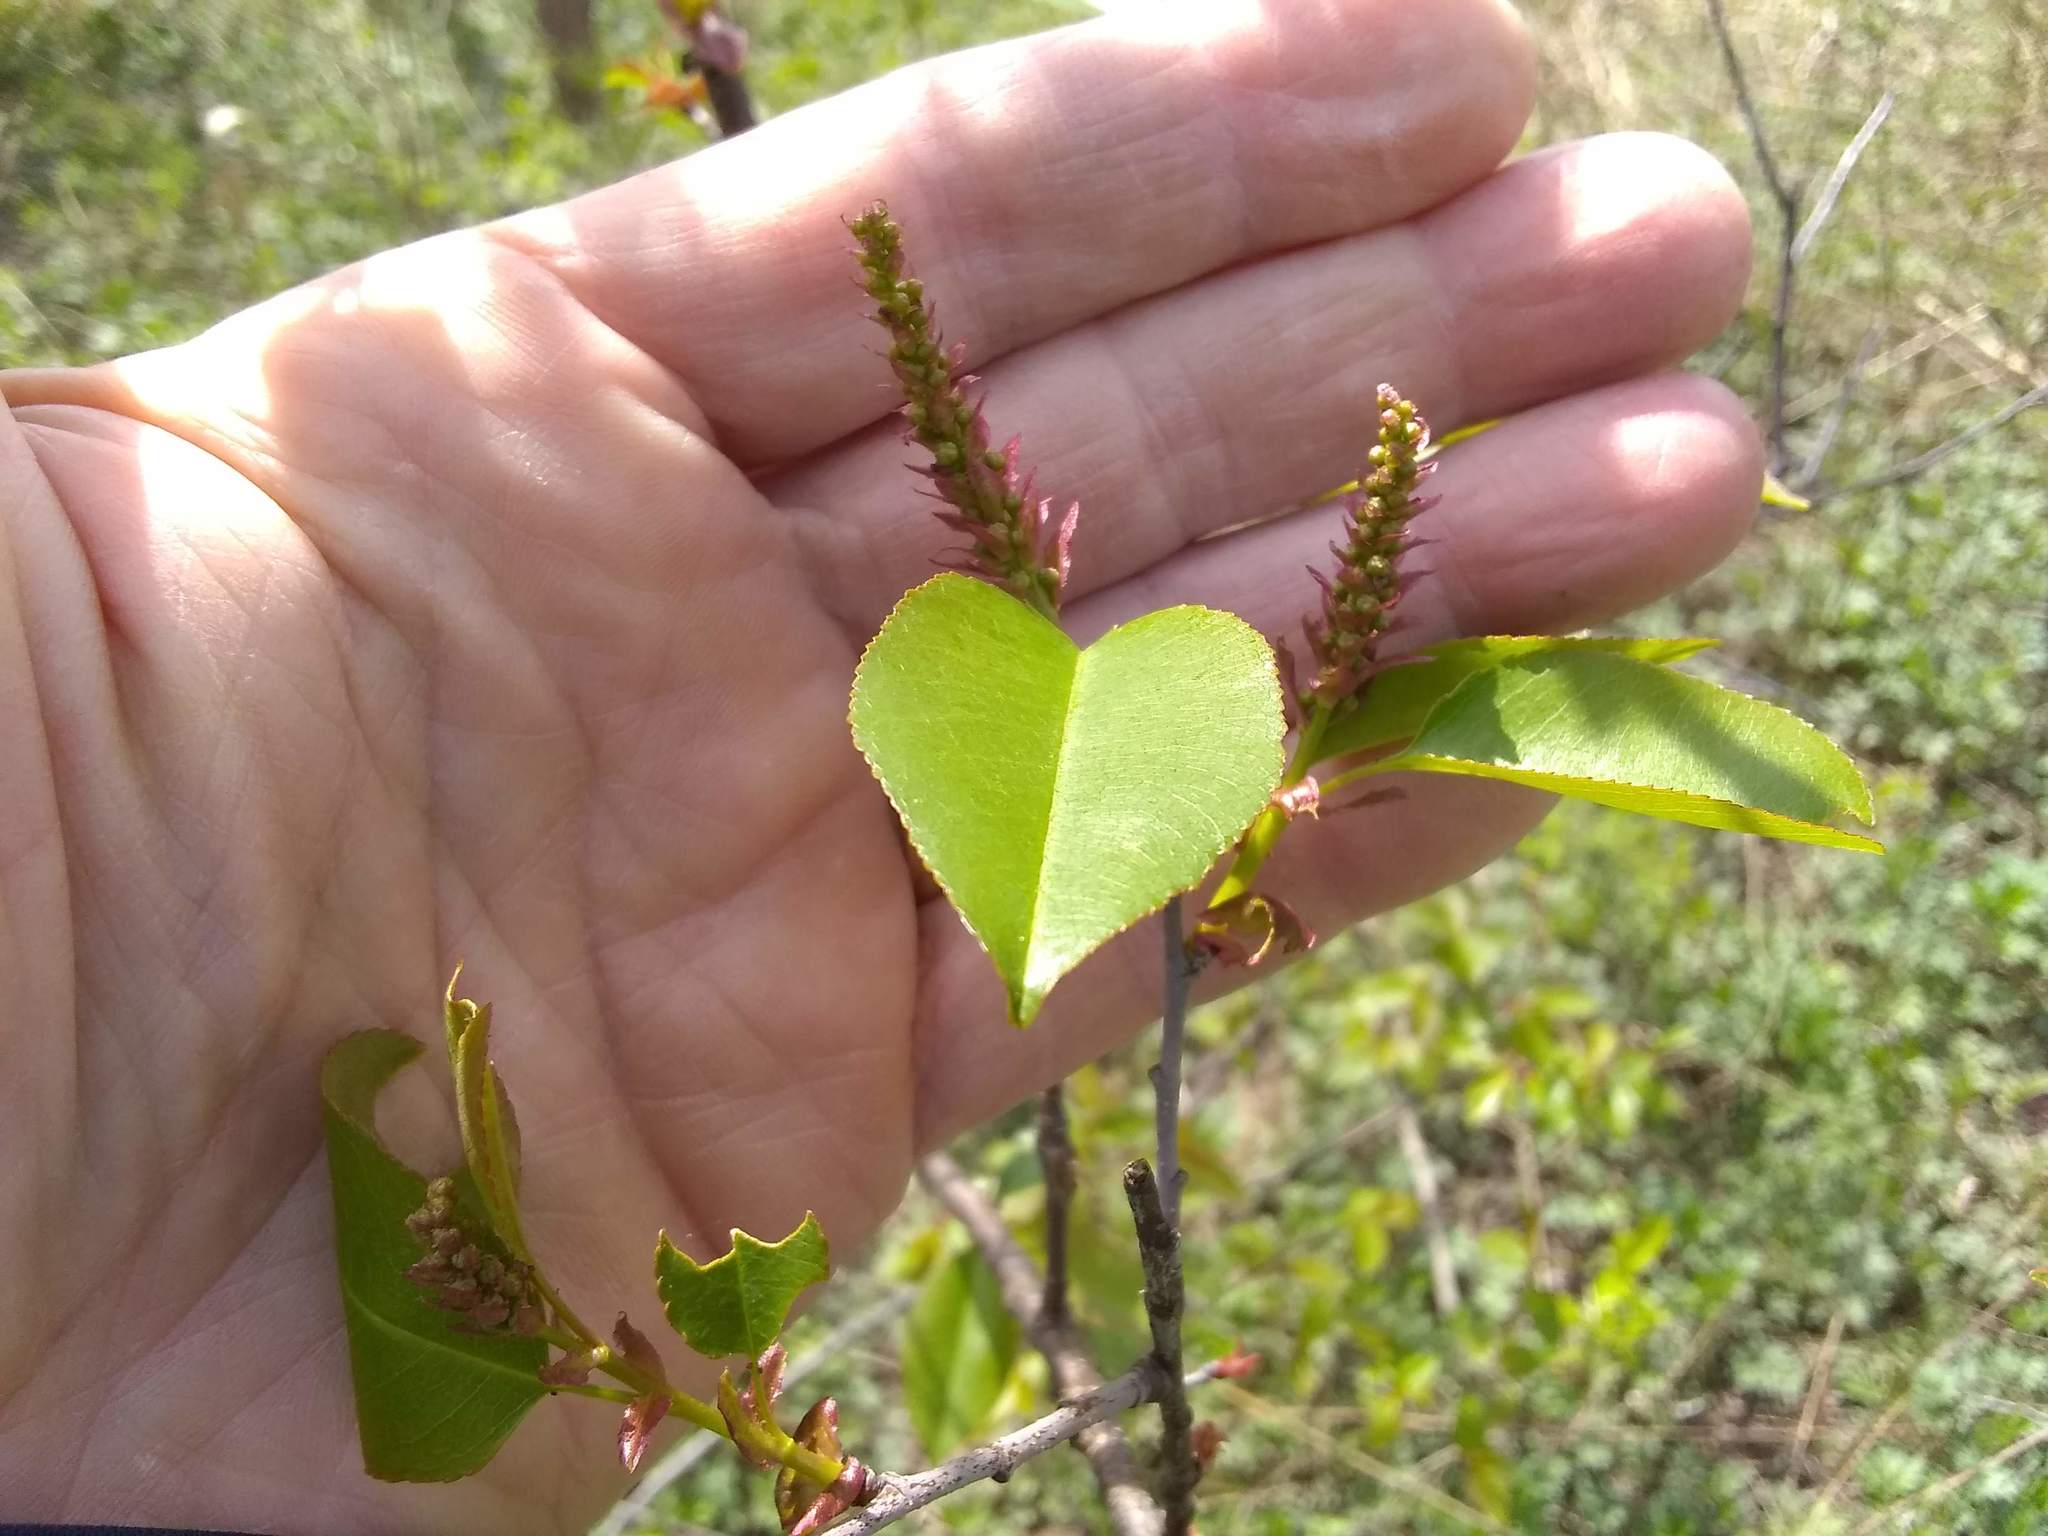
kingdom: Plantae
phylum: Tracheophyta
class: Magnoliopsida
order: Rosales
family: Rosaceae
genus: Prunus
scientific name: Prunus serotina
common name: Black cherry
